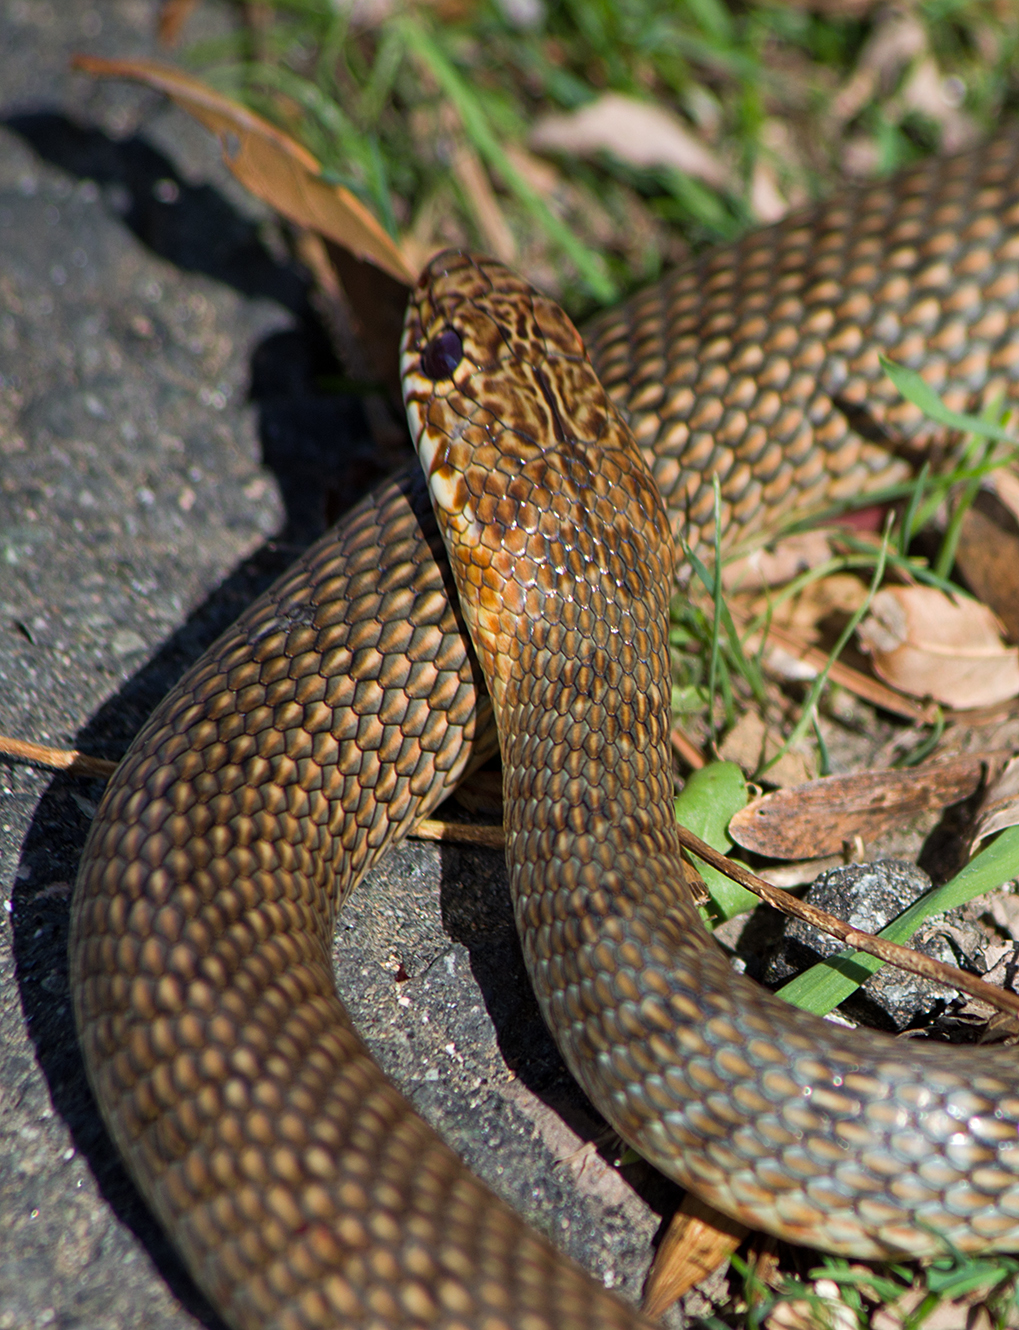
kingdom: Animalia
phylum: Chordata
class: Squamata
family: Colubridae
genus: Dolichophis
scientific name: Dolichophis caspius
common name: Large whip snake
